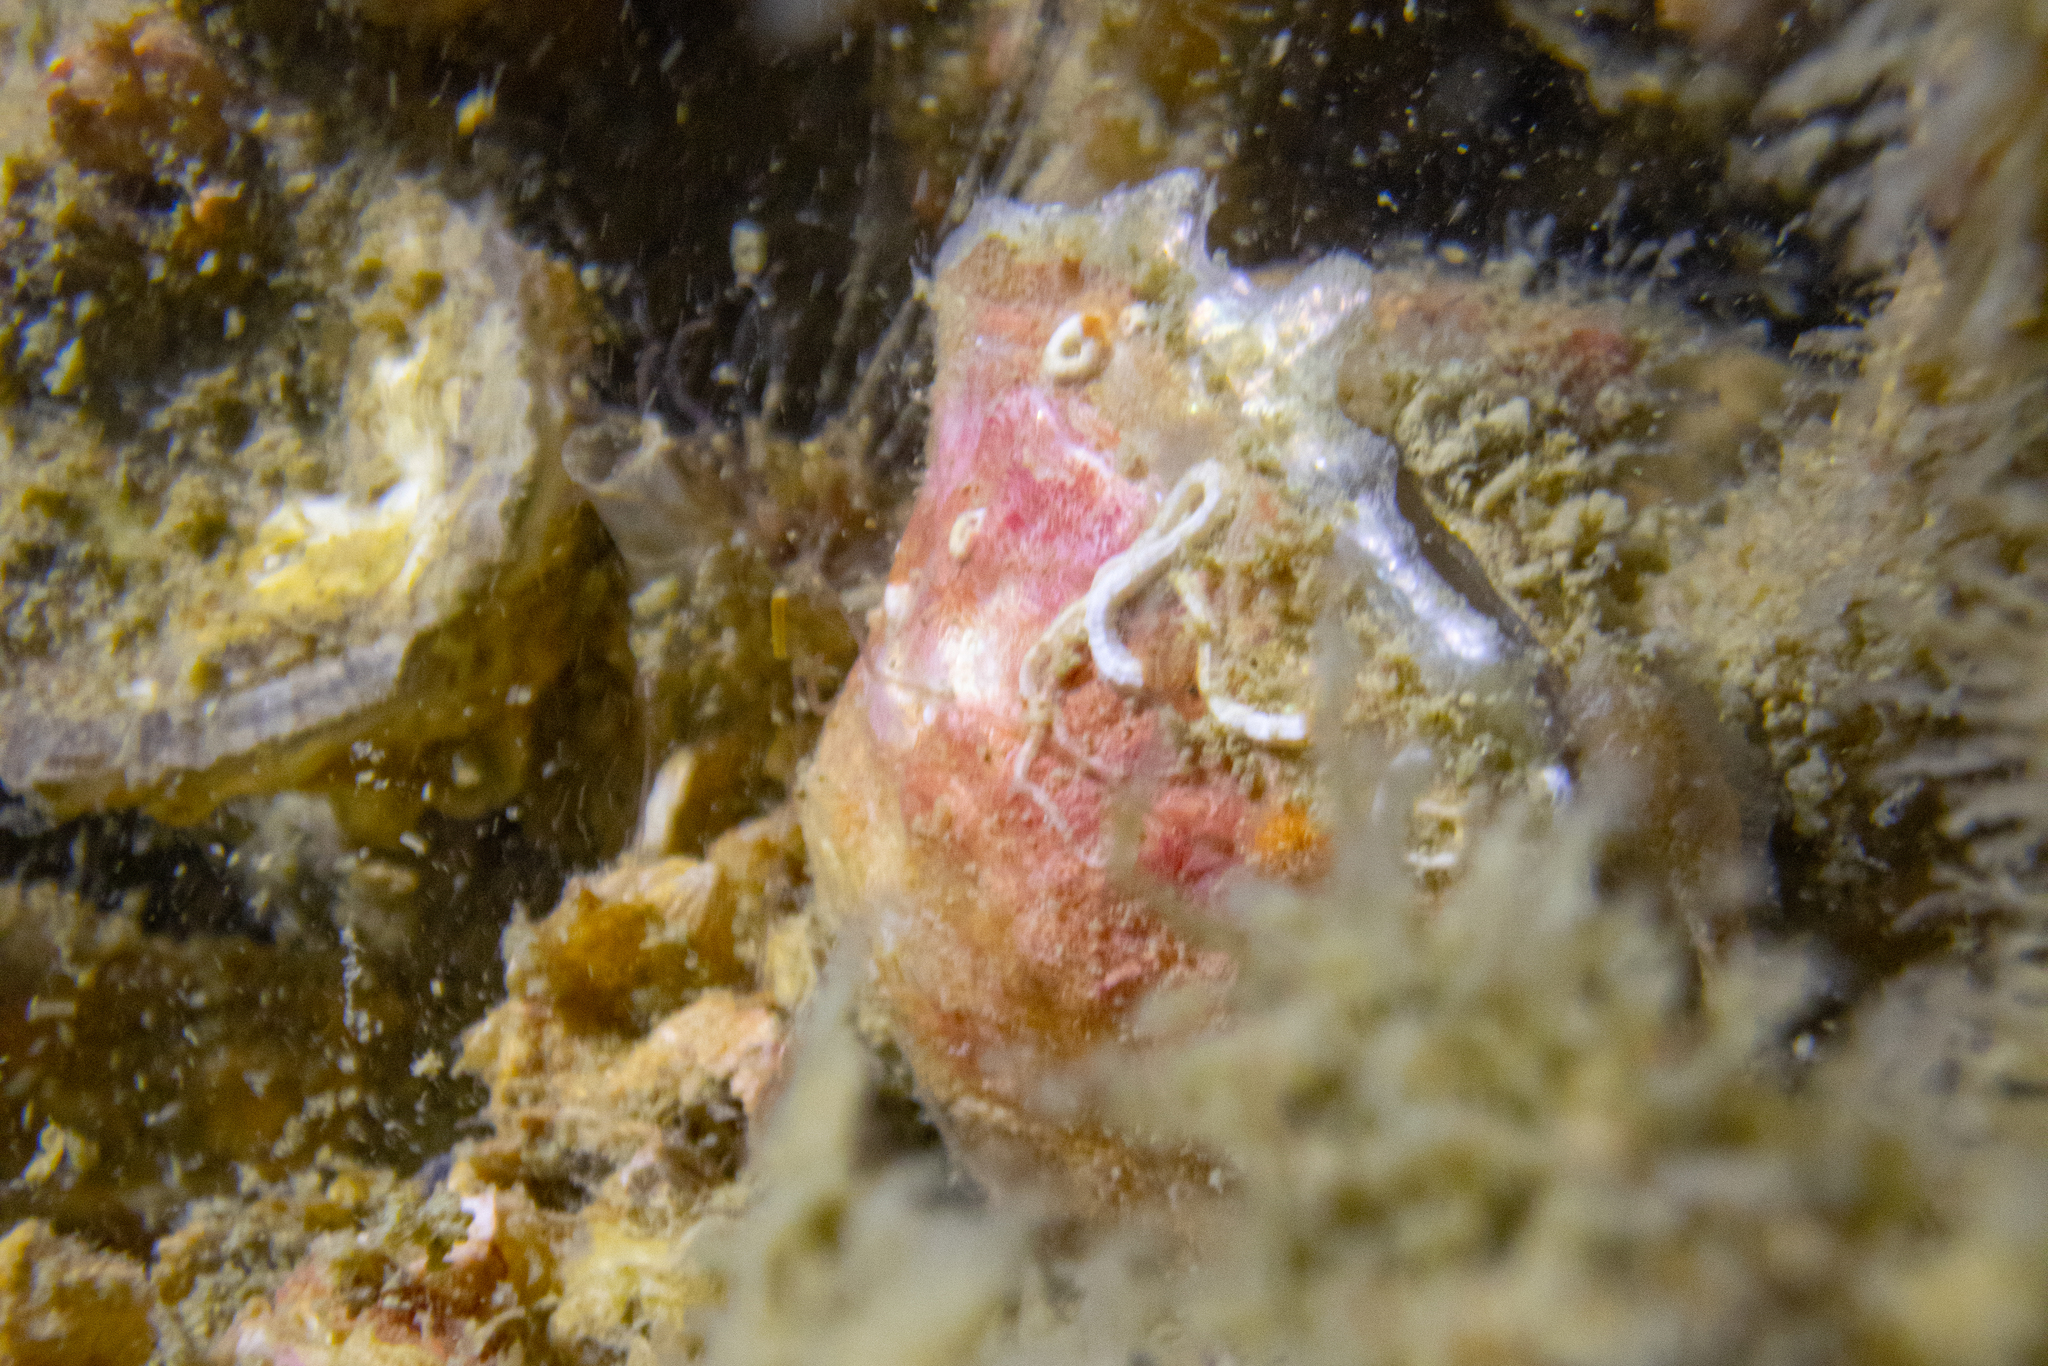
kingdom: Animalia
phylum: Mollusca
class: Bivalvia
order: Ostreida
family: Ostreidae
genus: Magallana
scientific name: Magallana gigas
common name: Pacific oyster
